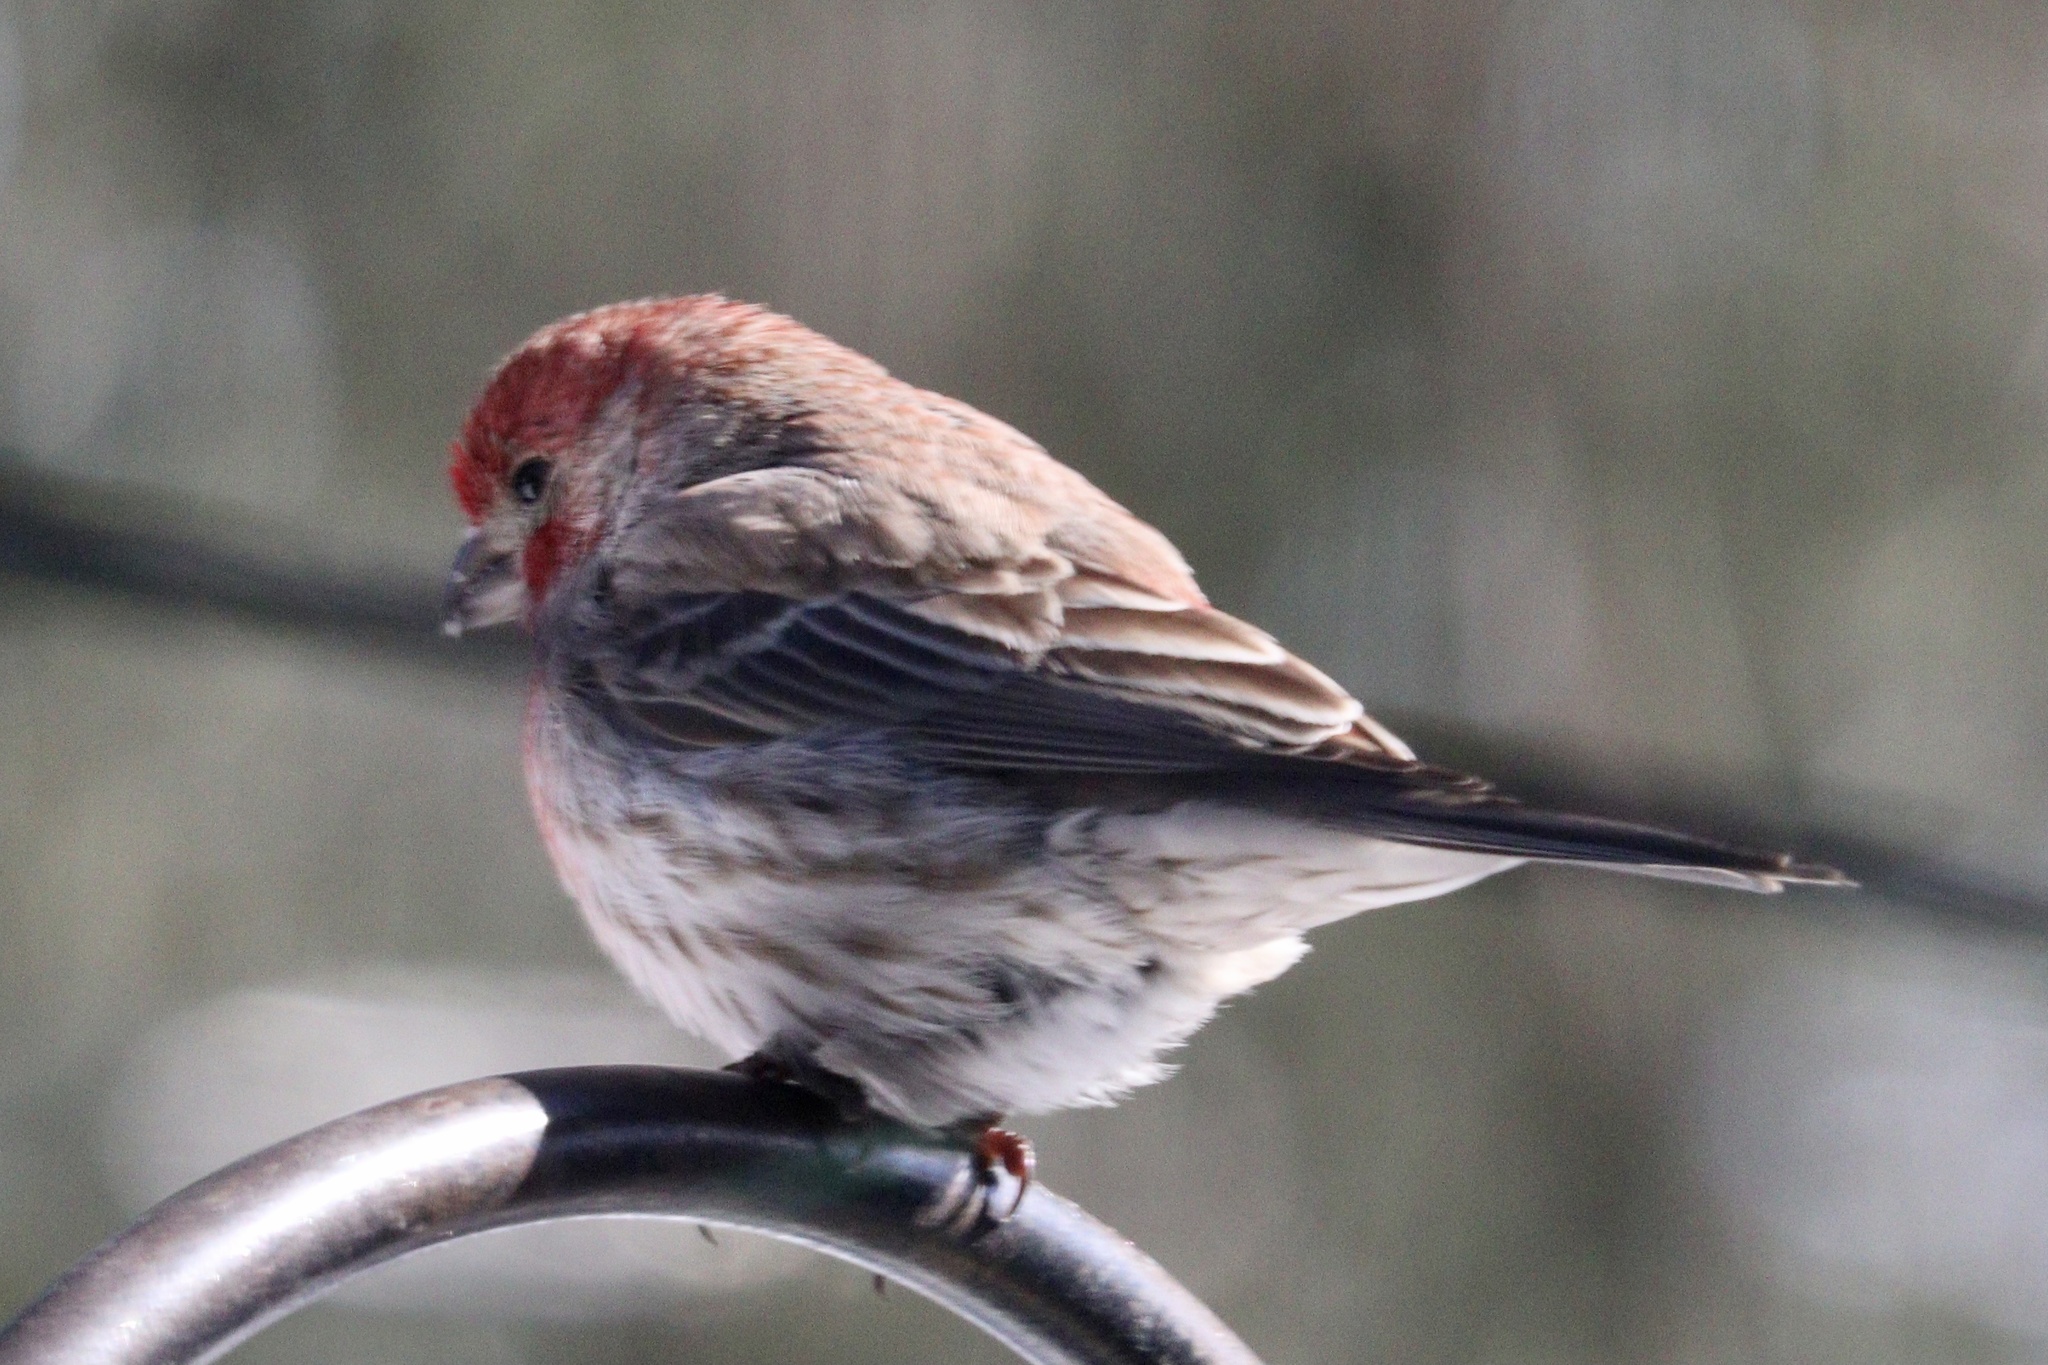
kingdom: Animalia
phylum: Chordata
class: Aves
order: Passeriformes
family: Fringillidae
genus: Haemorhous
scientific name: Haemorhous mexicanus
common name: House finch
